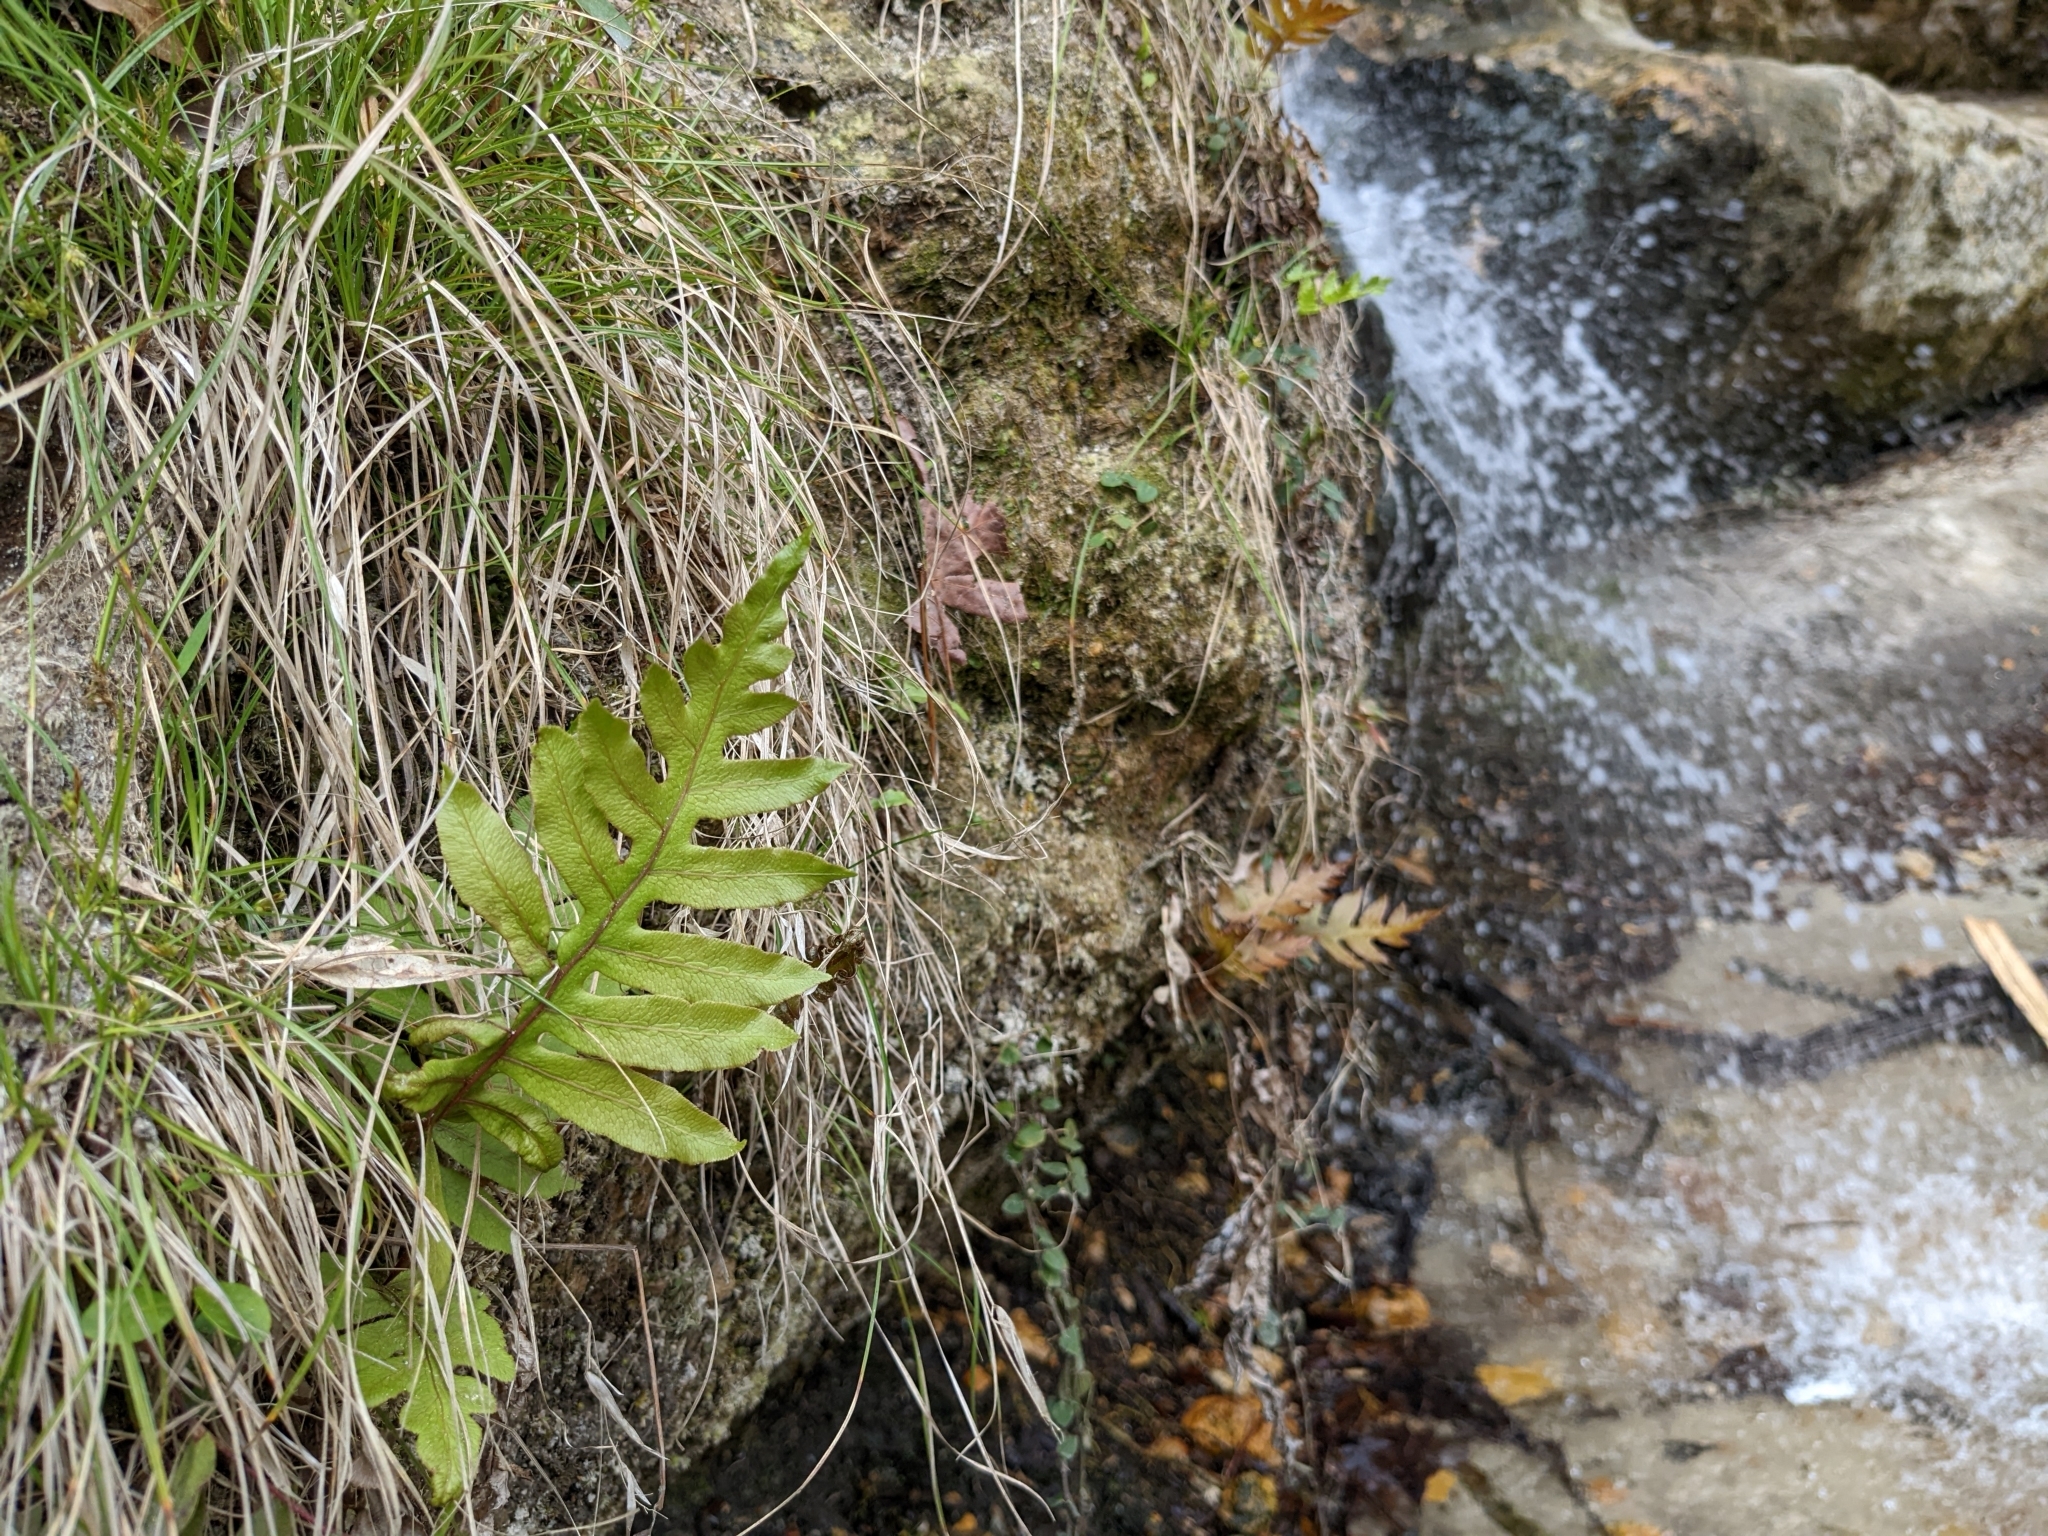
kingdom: Plantae
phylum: Tracheophyta
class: Polypodiopsida
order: Polypodiales
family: Blechnaceae
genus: Lorinseria
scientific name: Lorinseria areolata
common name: Dwarf chain fern
